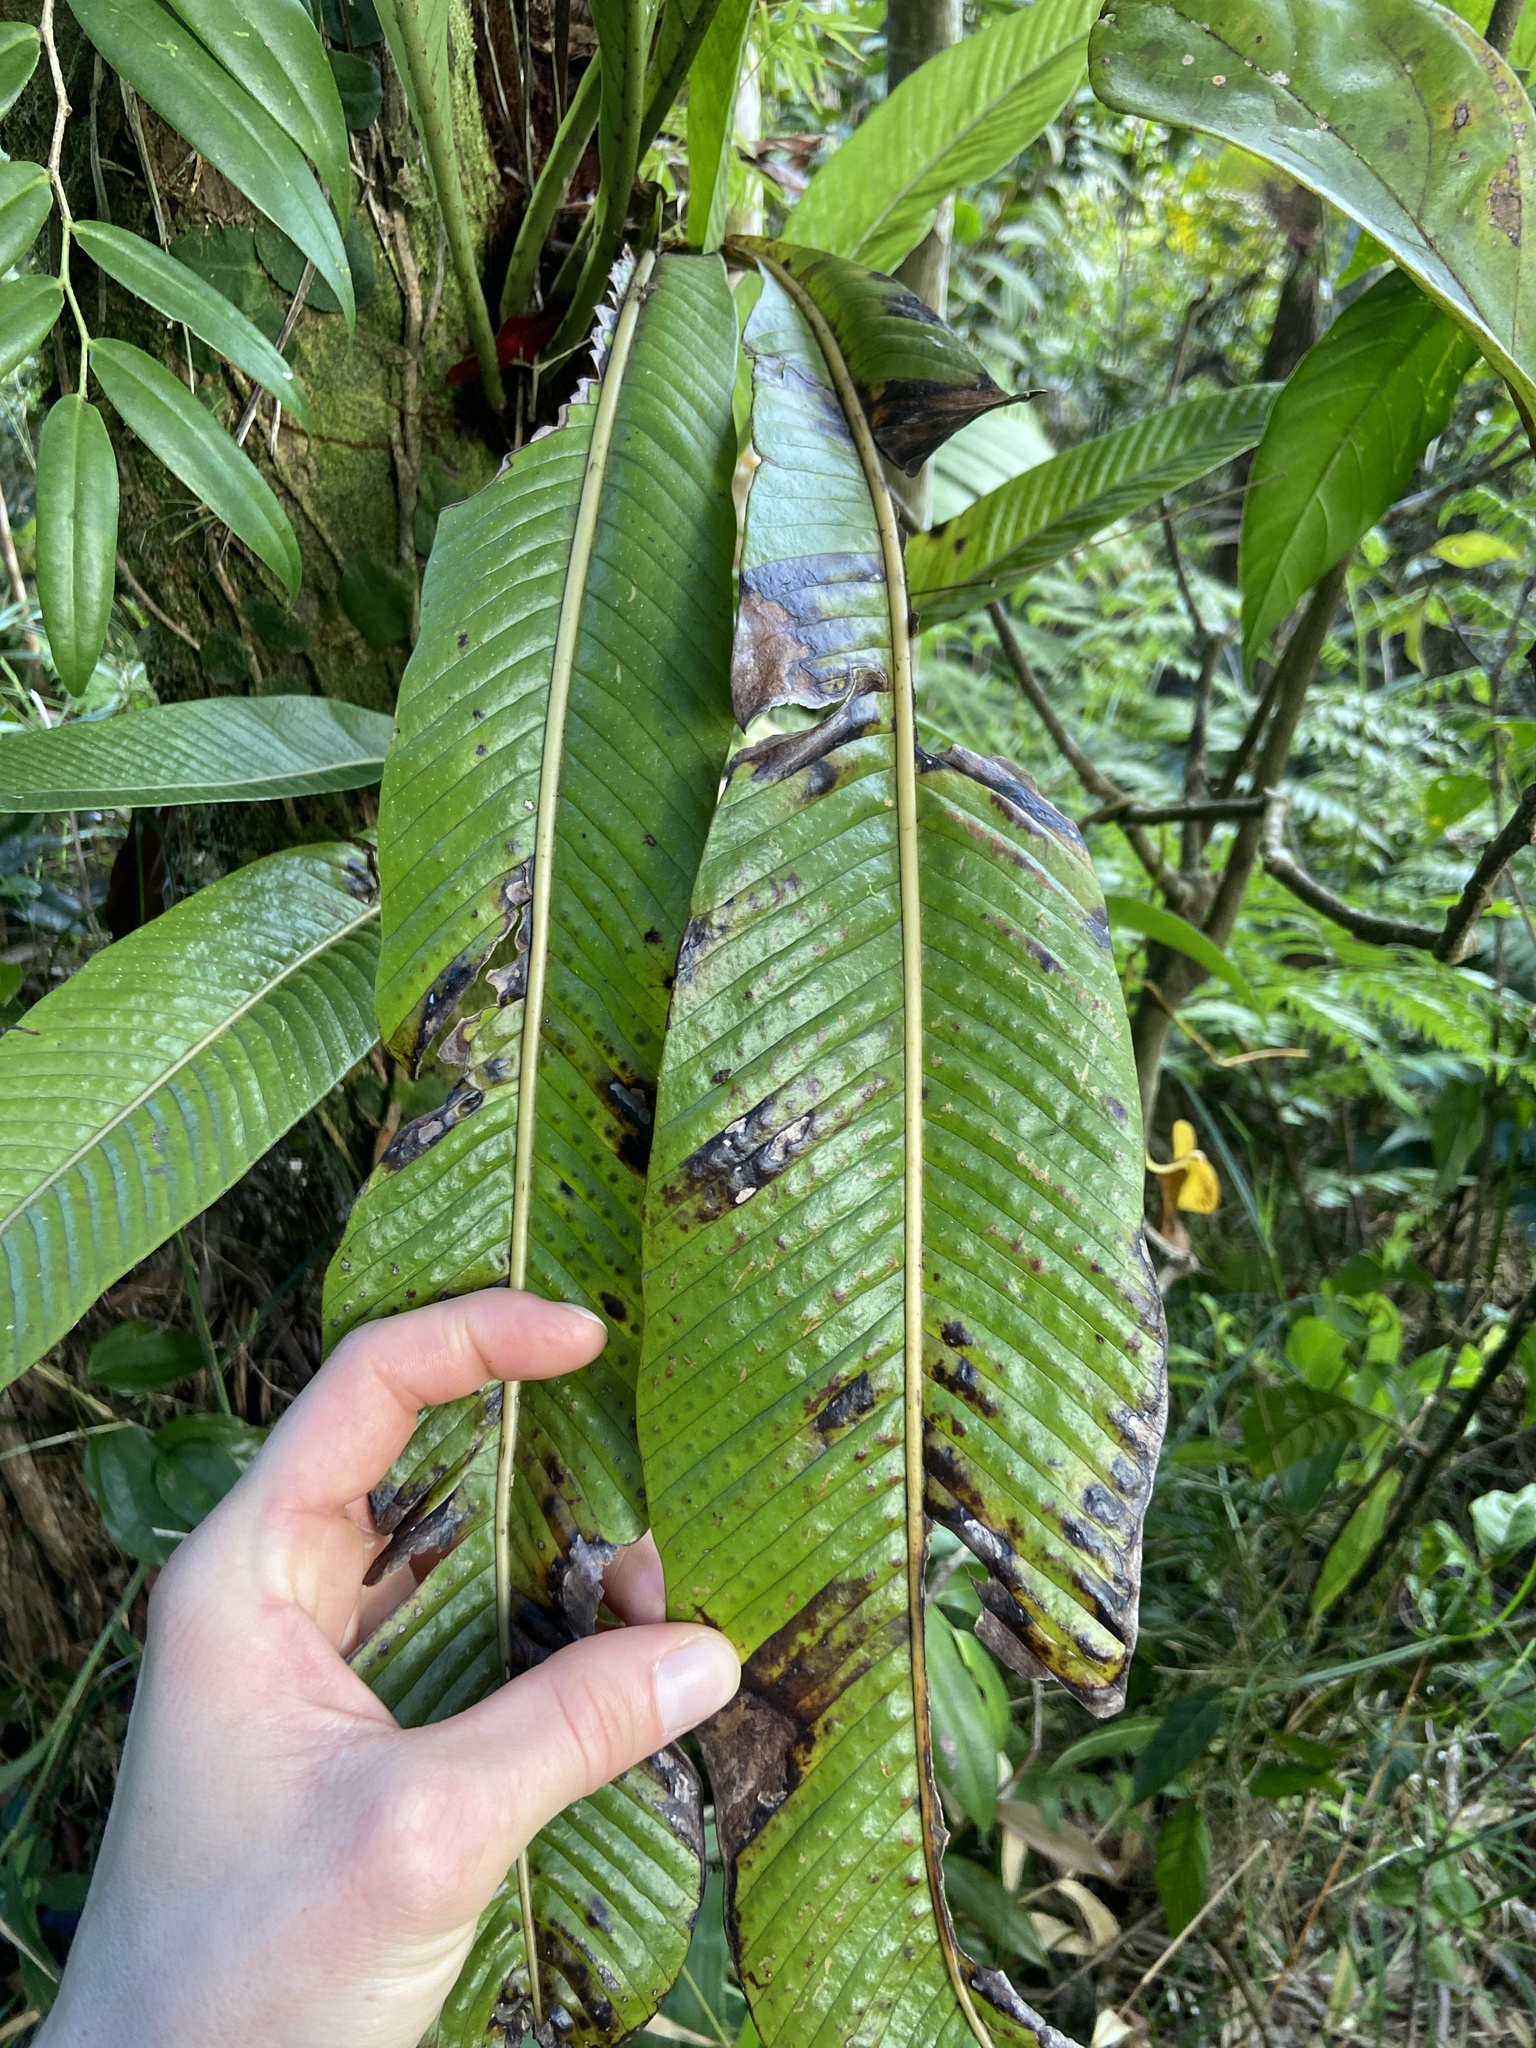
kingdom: Plantae
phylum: Tracheophyta
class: Polypodiopsida
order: Polypodiales
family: Polypodiaceae
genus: Niphidium
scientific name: Niphidium crassifolium
